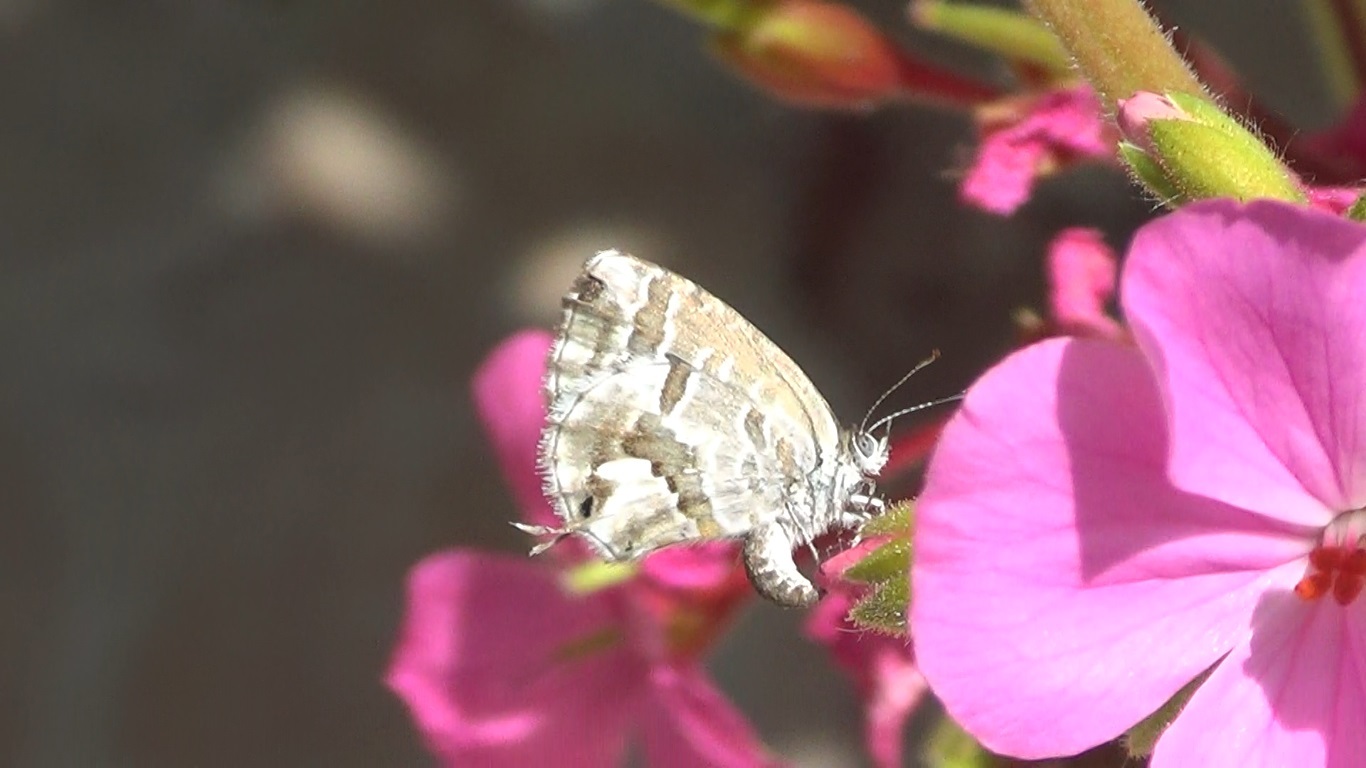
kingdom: Animalia
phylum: Arthropoda
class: Insecta
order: Lepidoptera
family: Lycaenidae
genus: Cacyreus
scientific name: Cacyreus marshalli
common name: Geranium bronze
